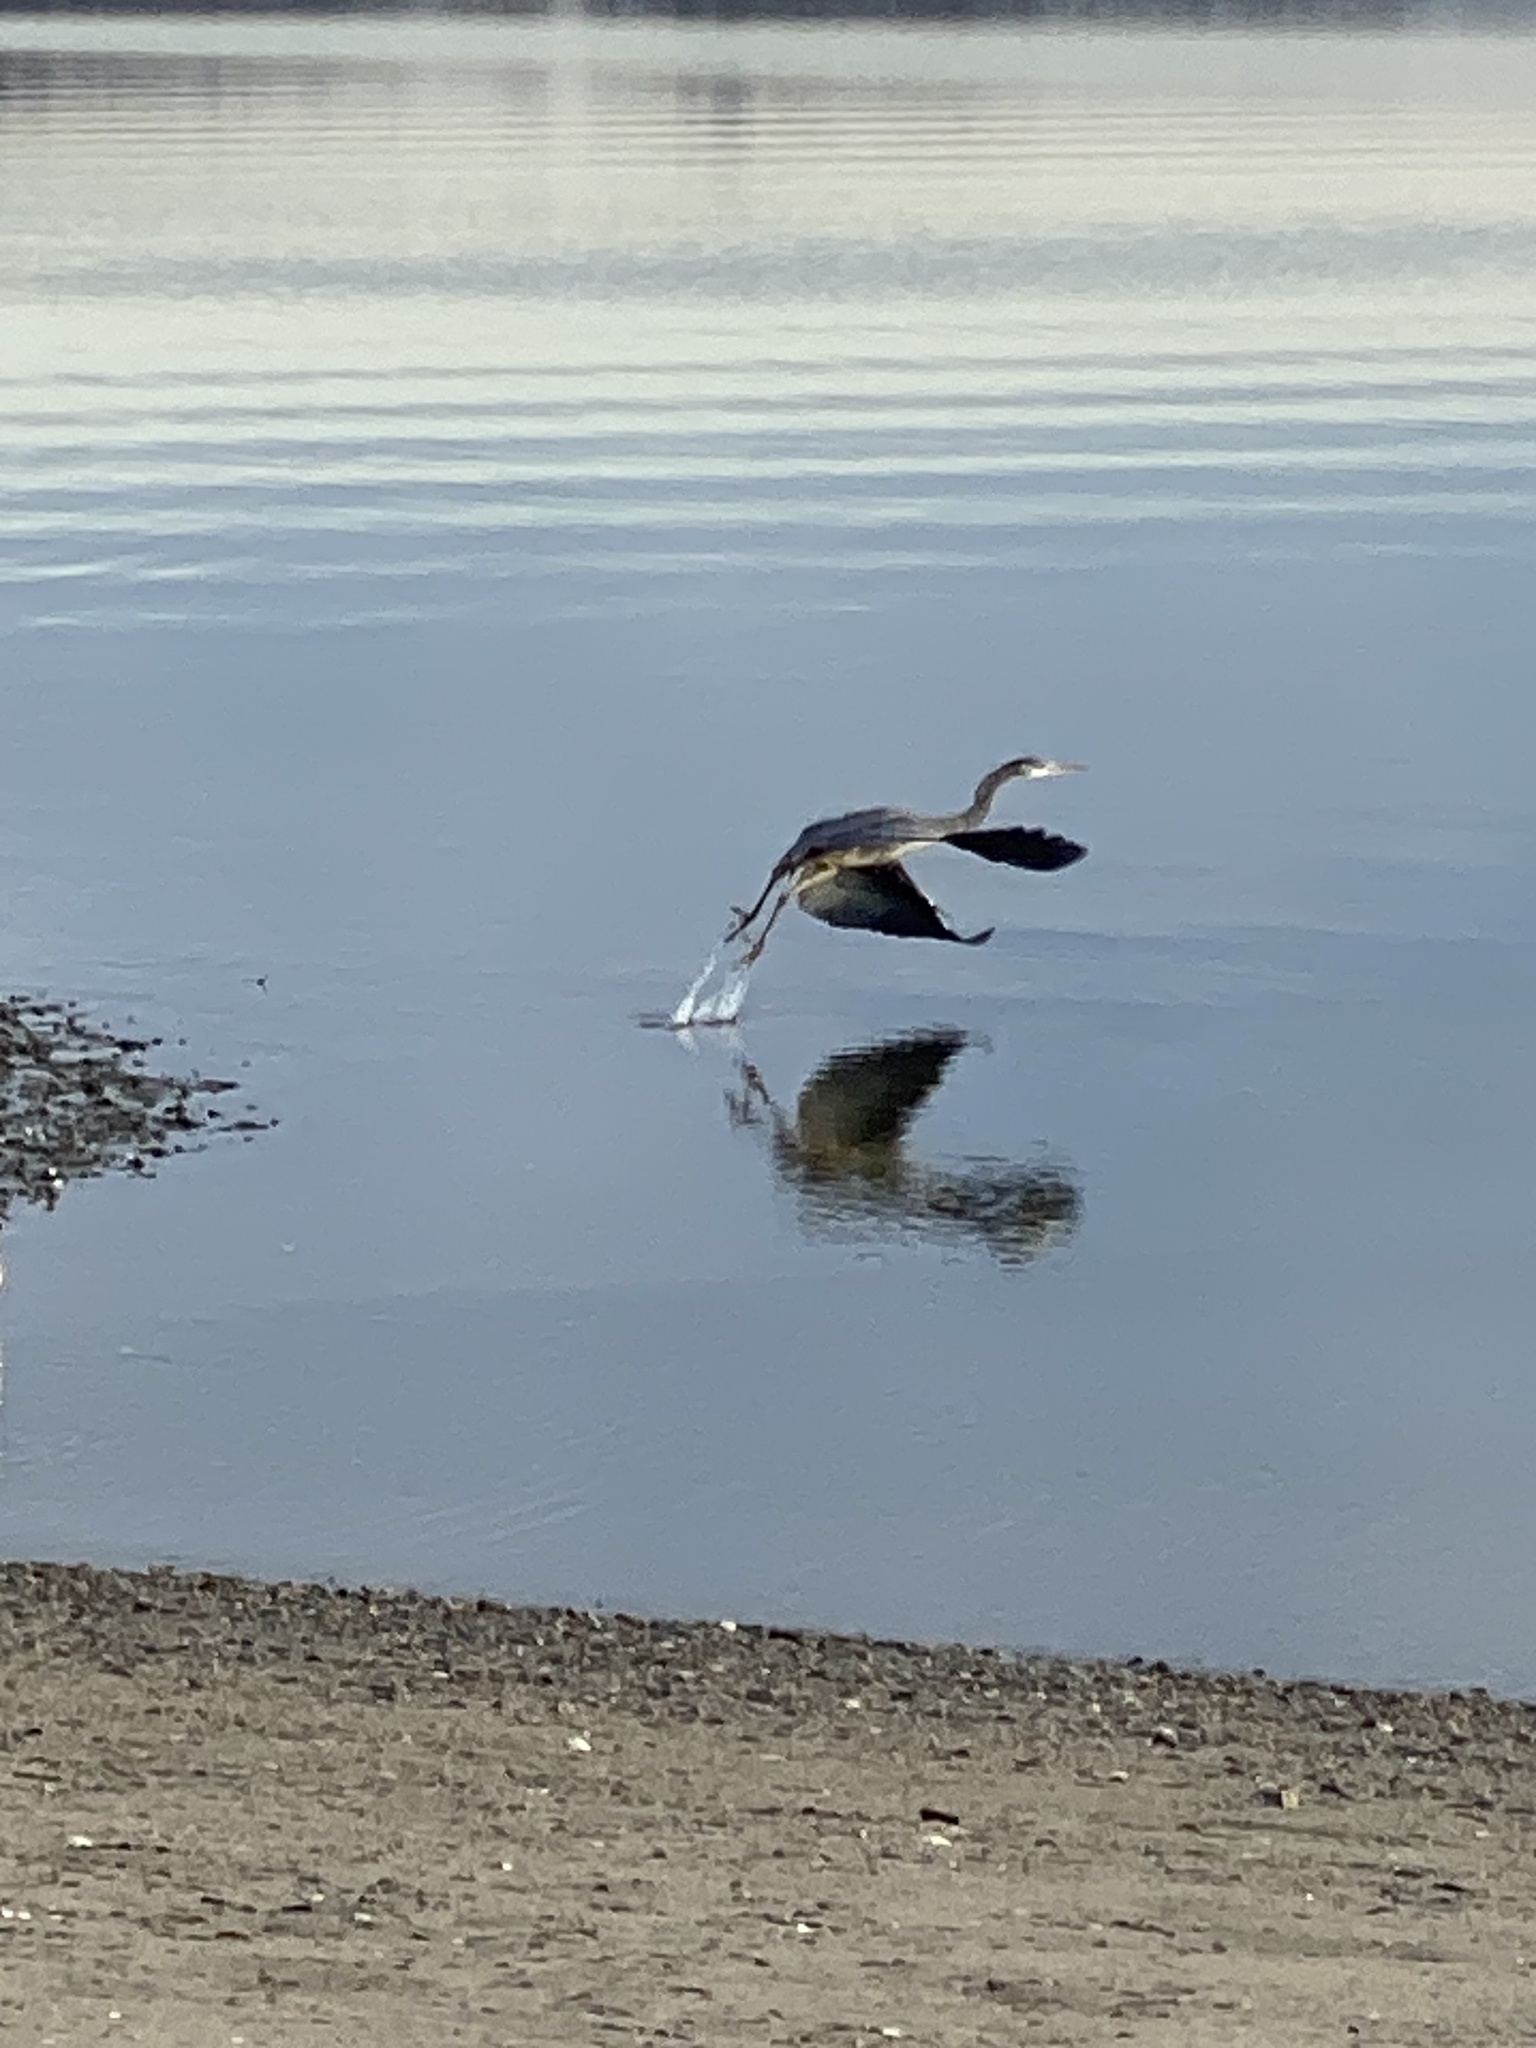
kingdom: Animalia
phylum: Chordata
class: Aves
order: Pelecaniformes
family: Ardeidae
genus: Ardea
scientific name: Ardea herodias
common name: Great blue heron
